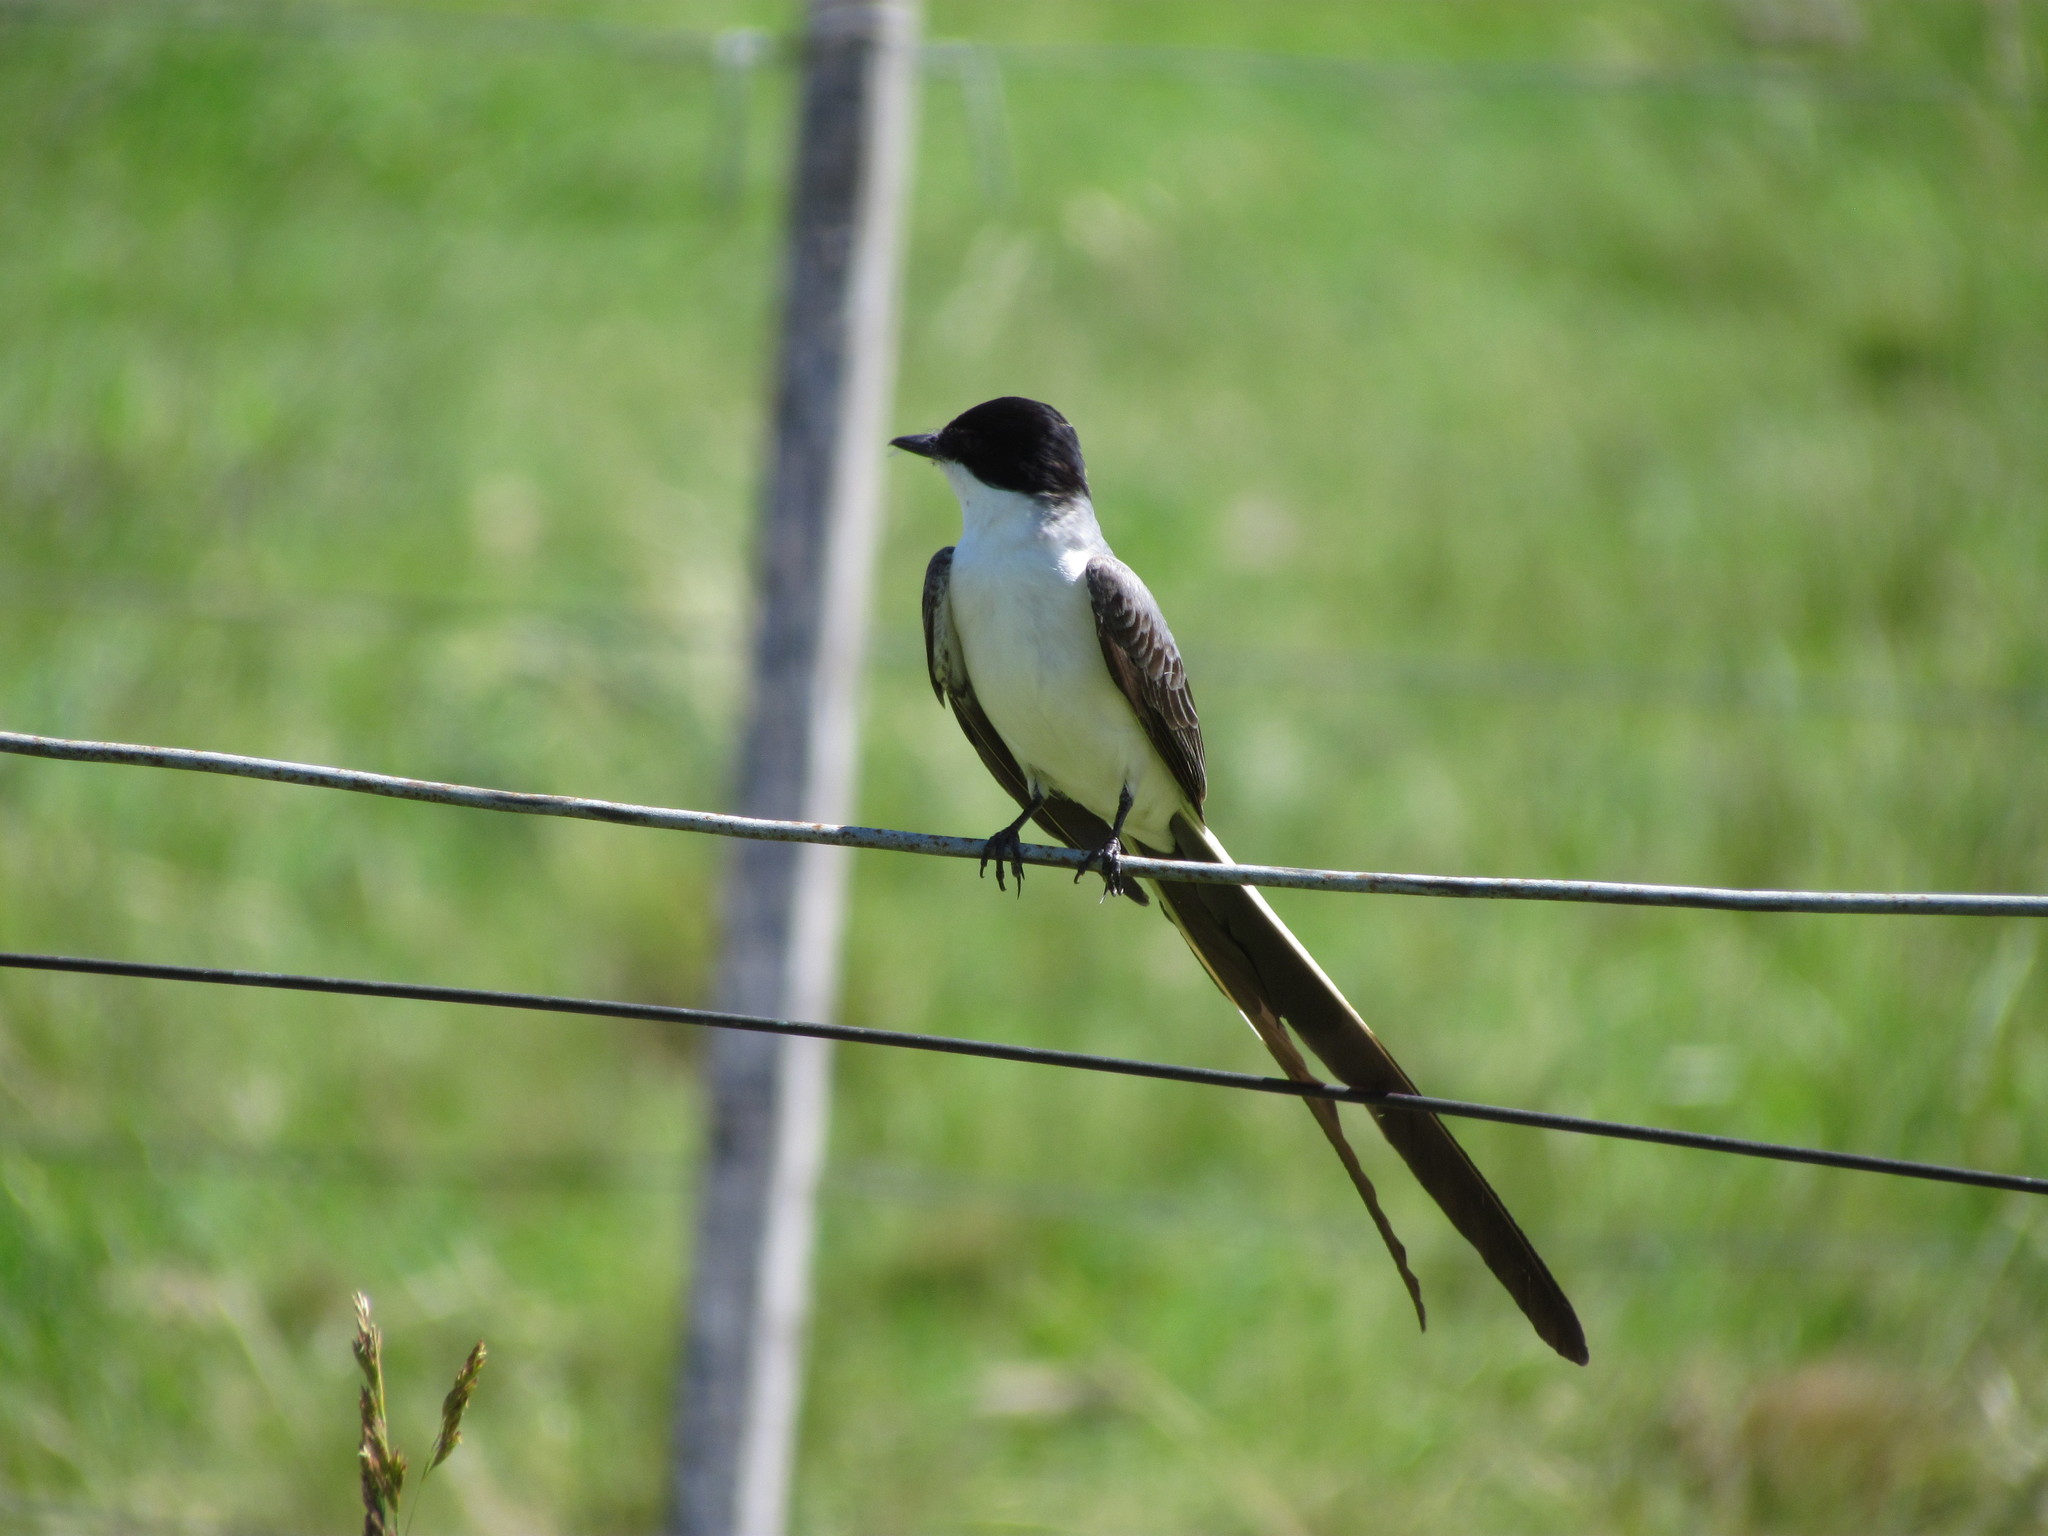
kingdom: Animalia
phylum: Chordata
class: Aves
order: Passeriformes
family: Tyrannidae
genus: Tyrannus
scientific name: Tyrannus savana
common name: Fork-tailed flycatcher
